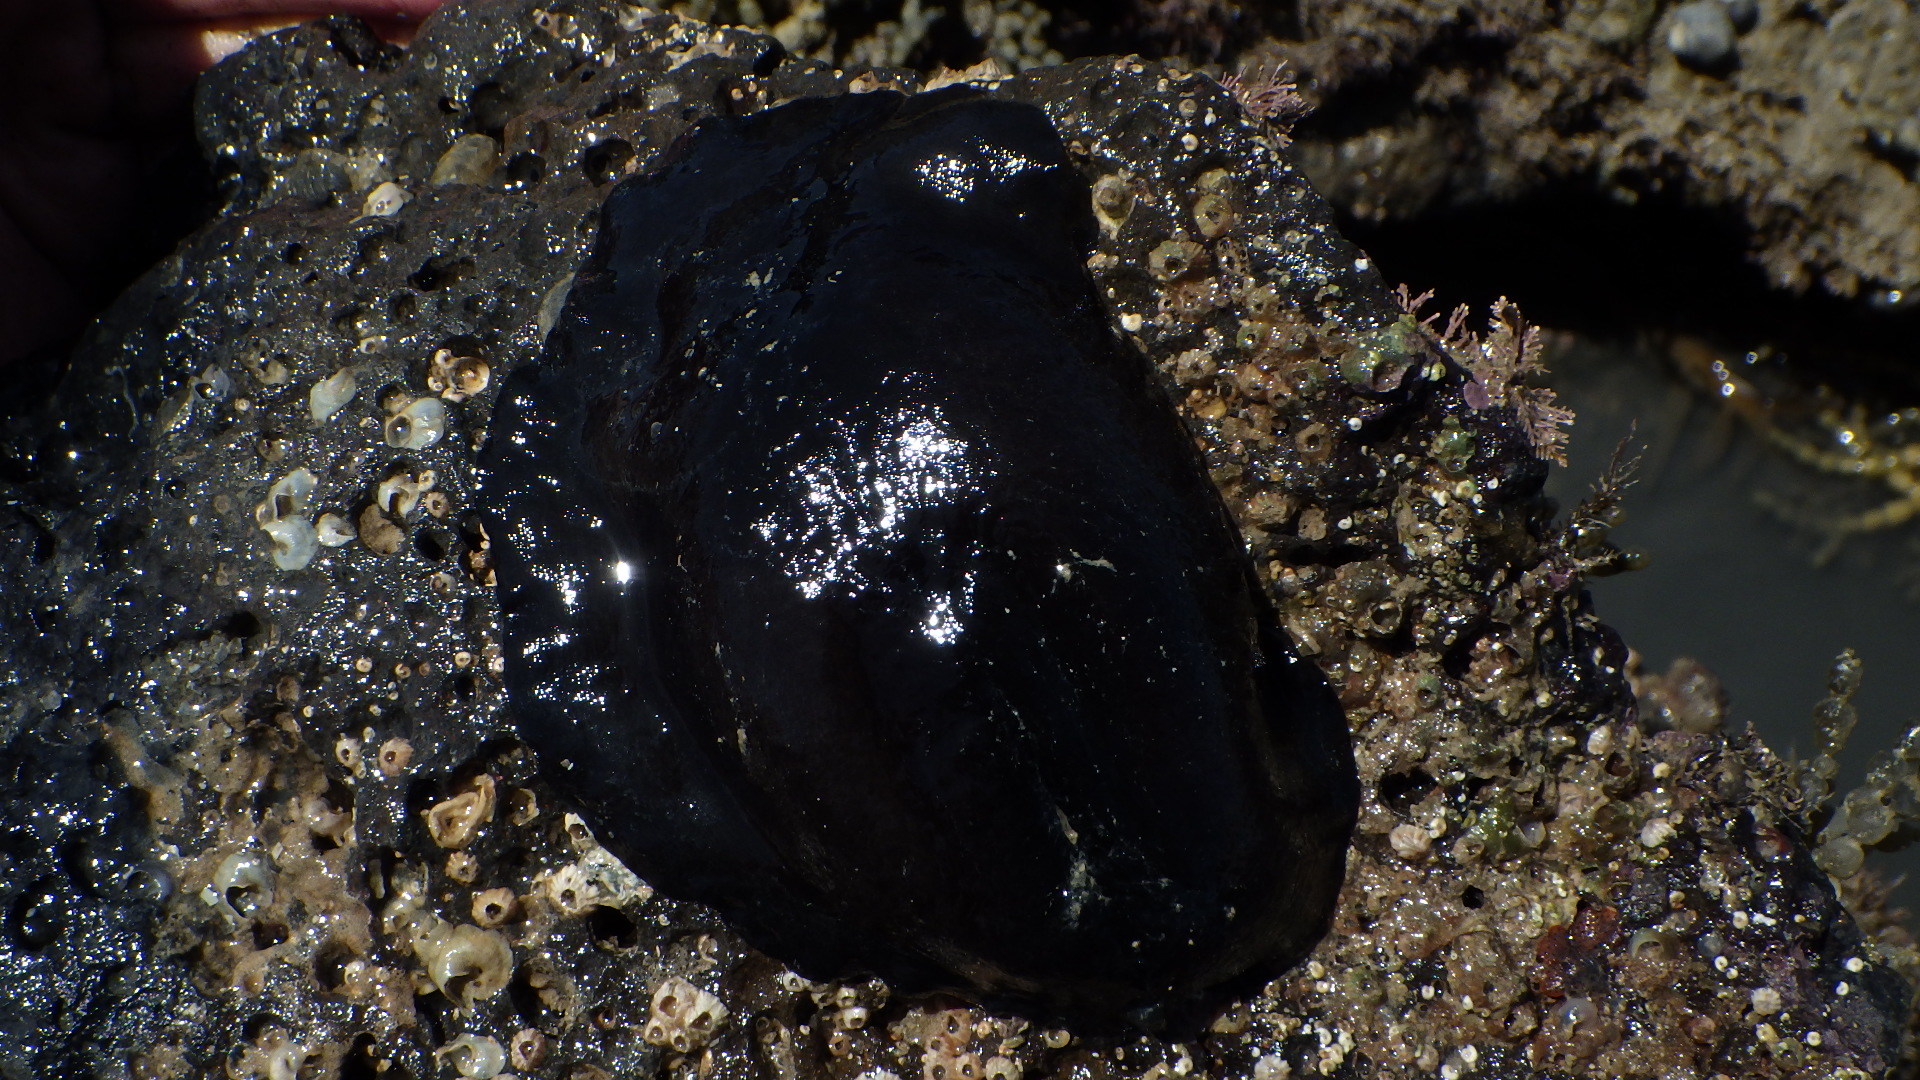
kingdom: Animalia
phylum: Mollusca
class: Gastropoda
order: Lepetellida
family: Fissurellidae
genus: Scutus
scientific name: Scutus breviculus
